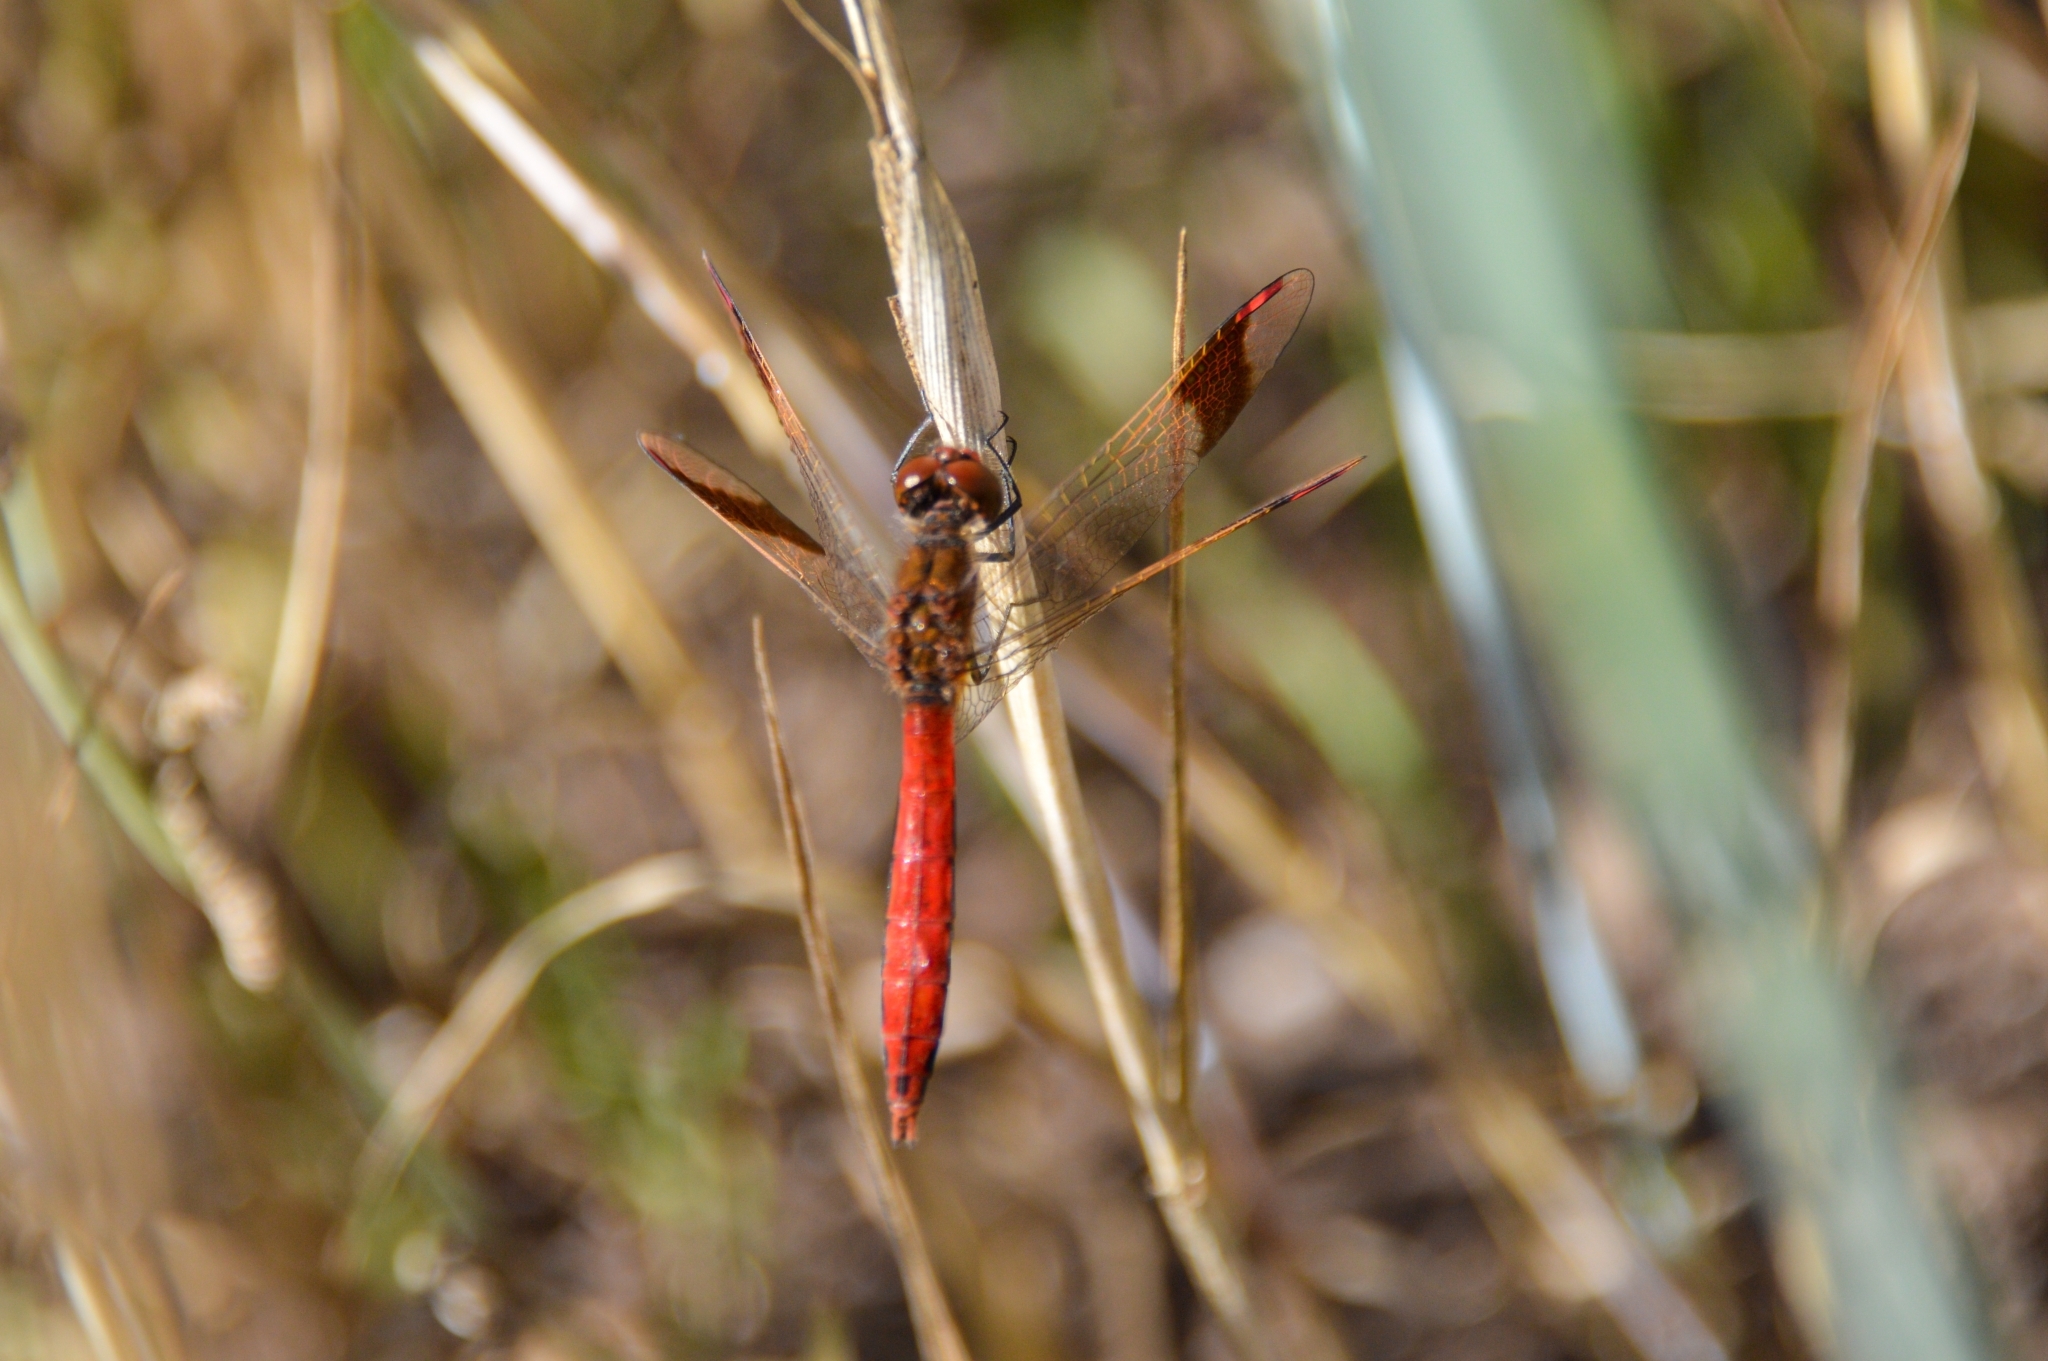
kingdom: Animalia
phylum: Arthropoda
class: Insecta
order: Odonata
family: Libellulidae
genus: Sympetrum
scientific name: Sympetrum pedemontanum
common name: Banded darter
